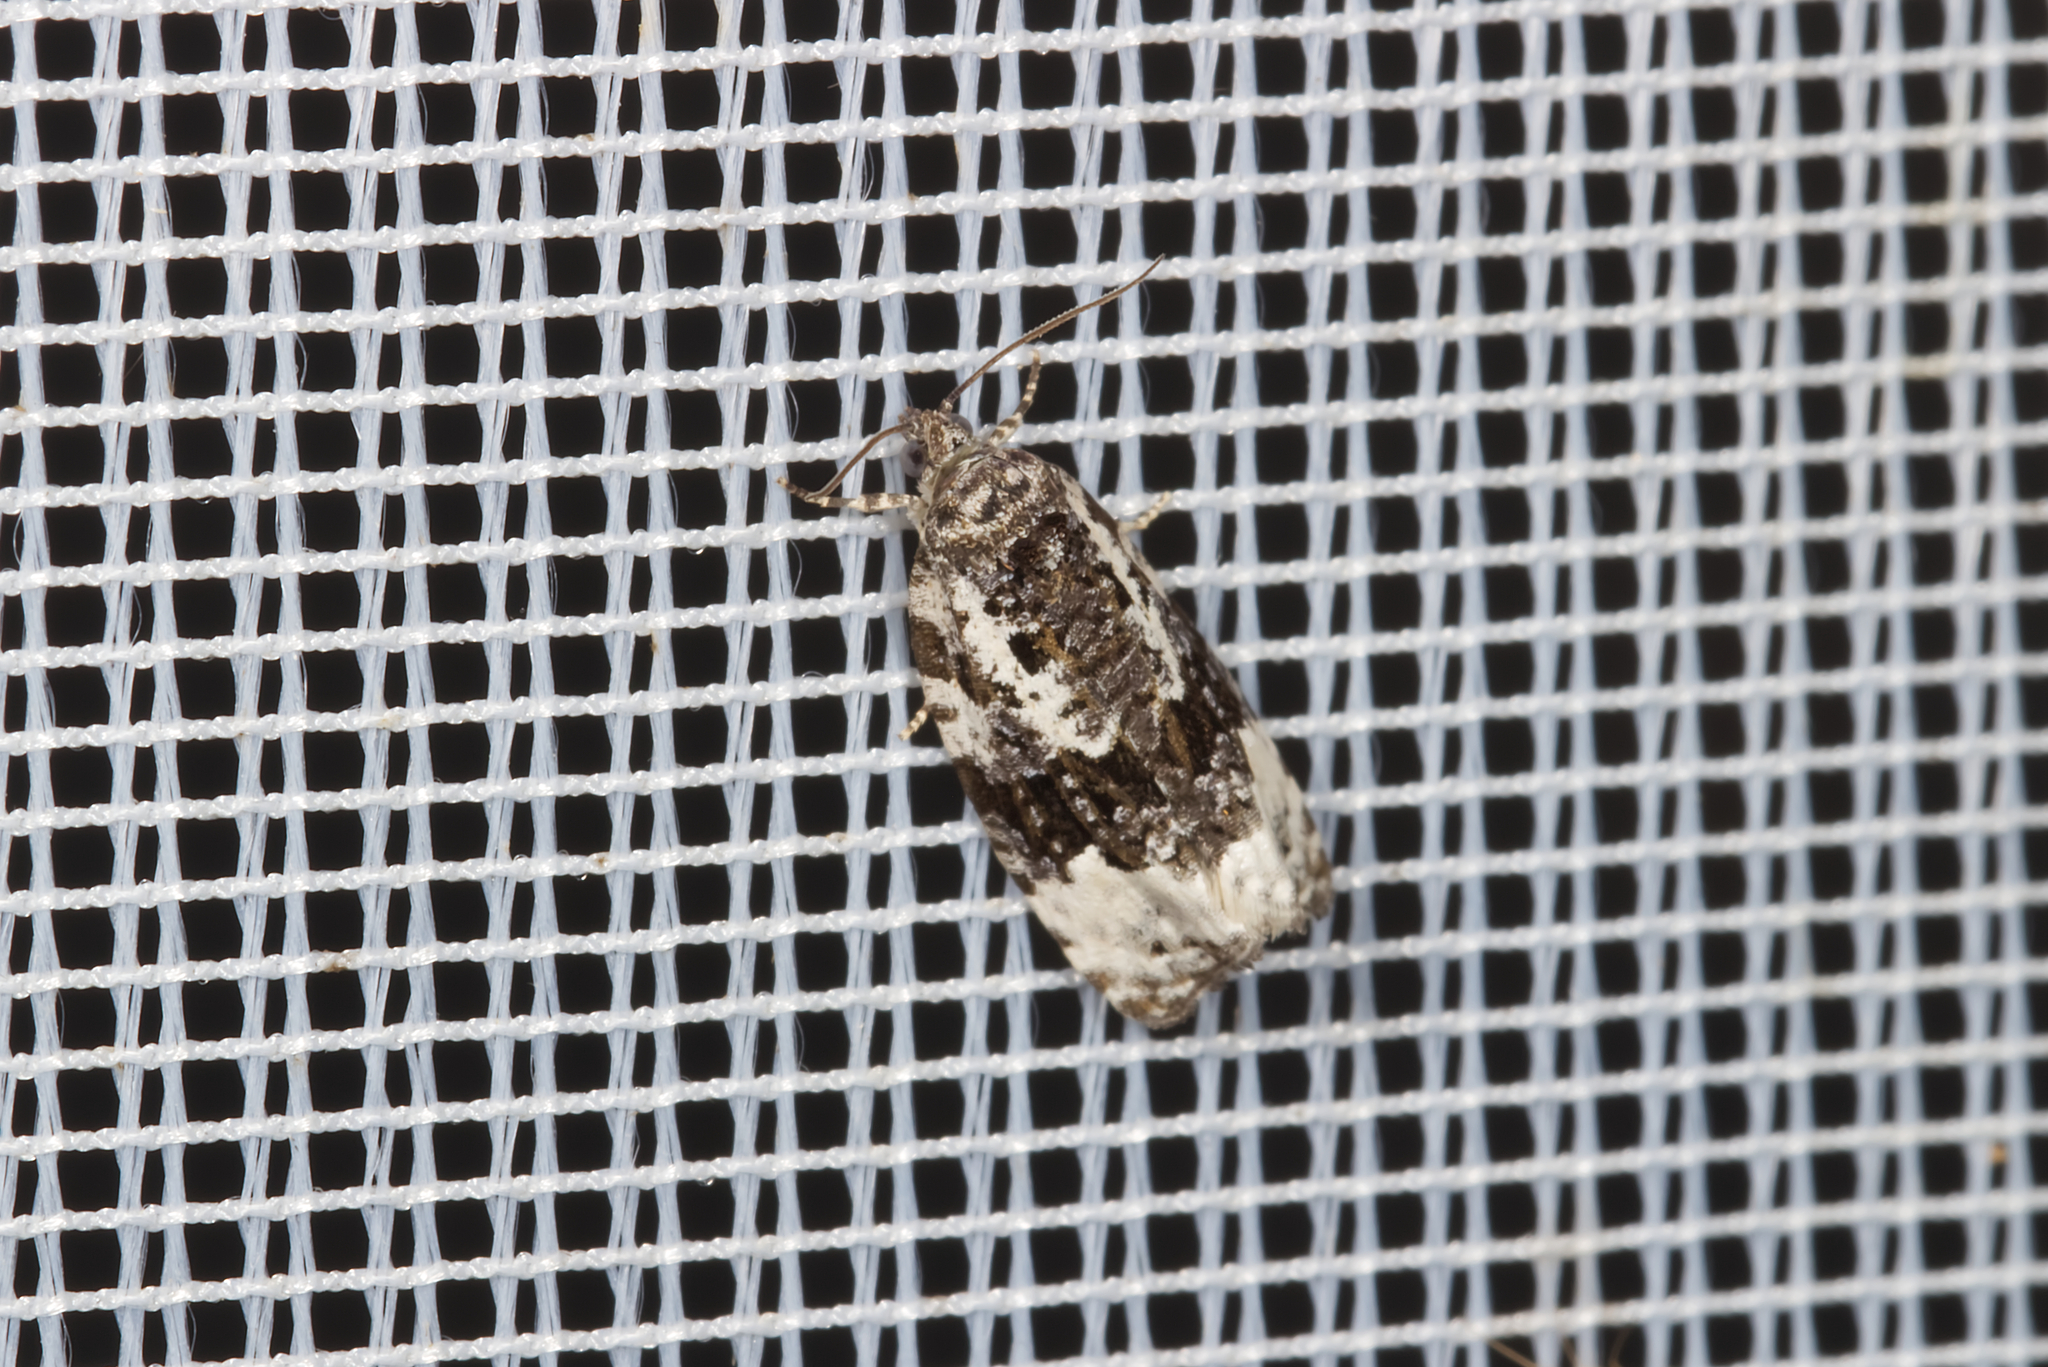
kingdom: Animalia
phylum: Arthropoda
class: Insecta
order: Lepidoptera
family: Tortricidae
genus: Apotomis
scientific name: Apotomis turbidana
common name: White-shouldered marble
